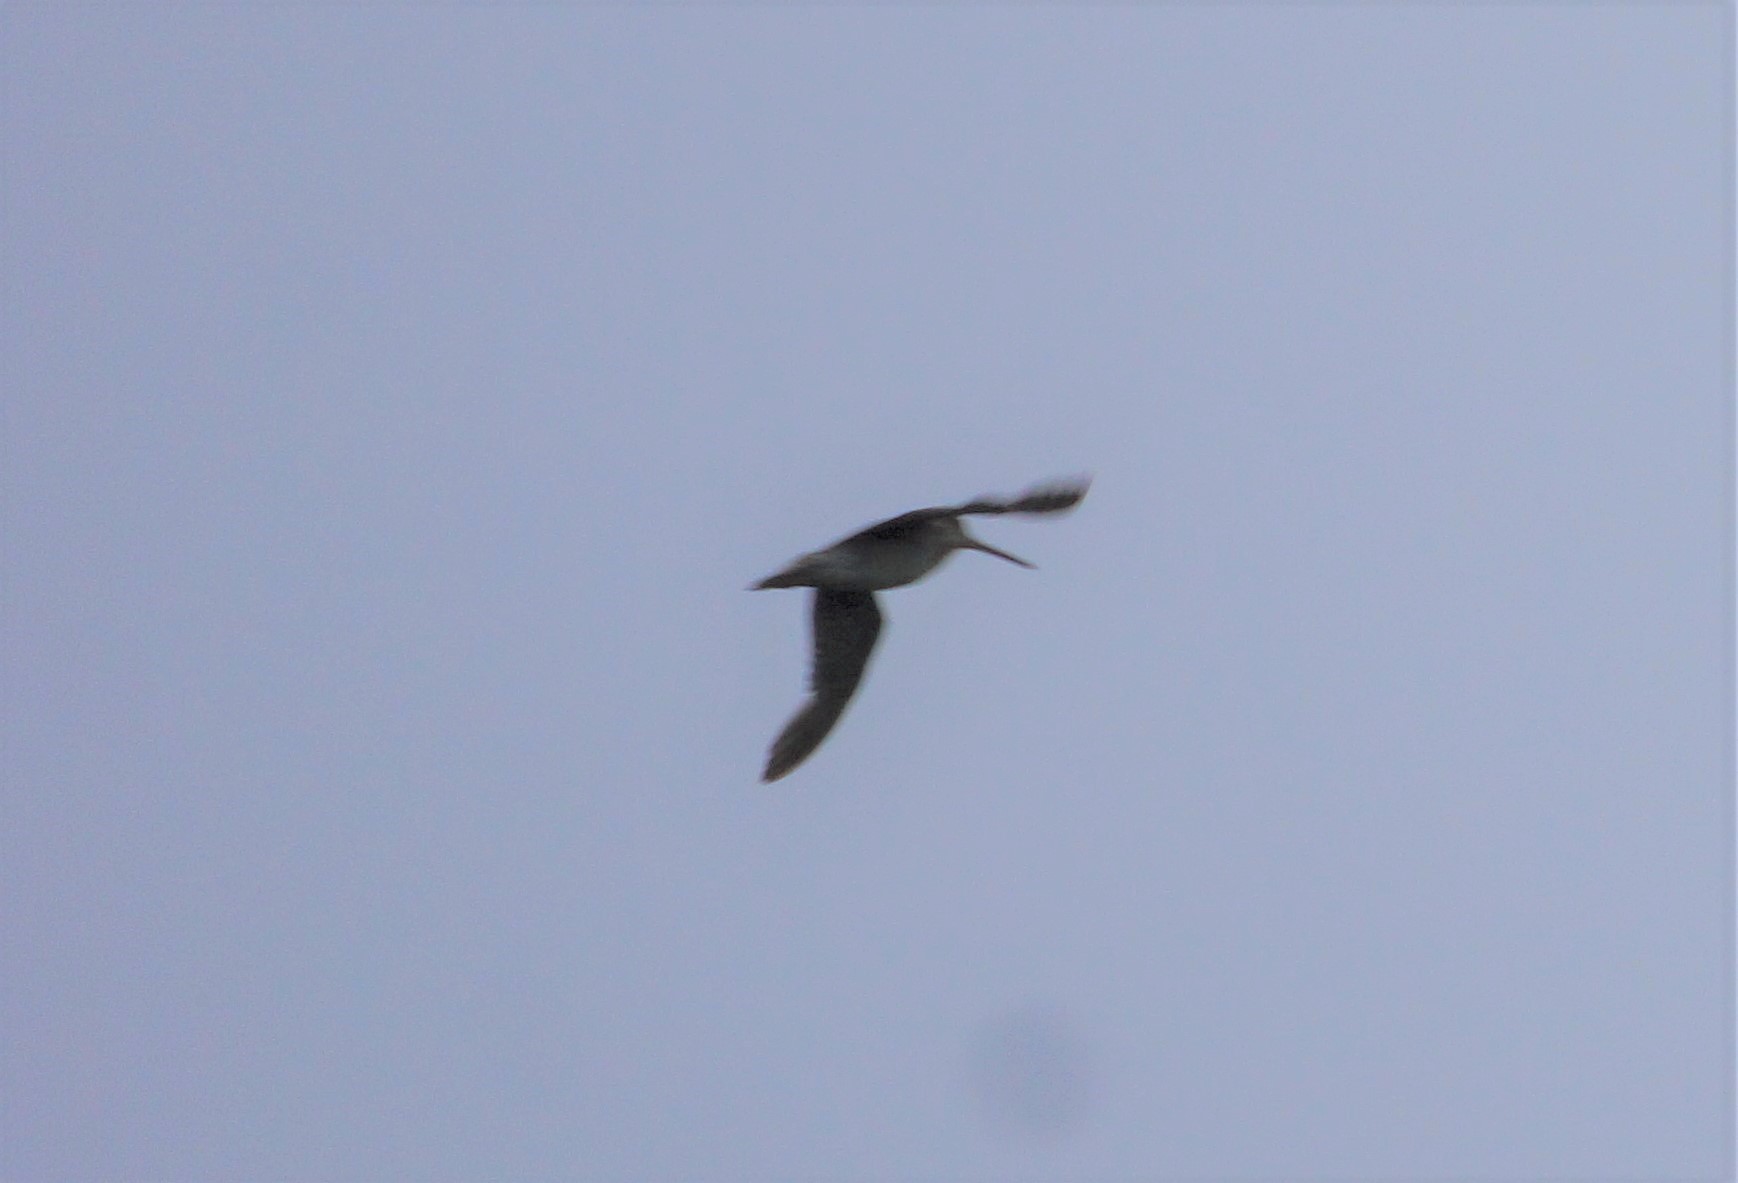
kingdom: Animalia
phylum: Chordata
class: Aves
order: Charadriiformes
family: Scolopacidae
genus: Gallinago
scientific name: Gallinago hardwickii
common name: Latham's snipe
